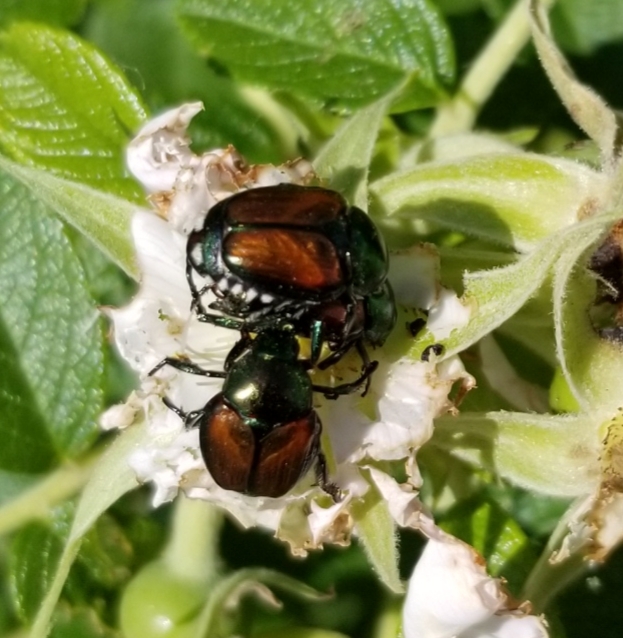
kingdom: Animalia
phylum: Arthropoda
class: Insecta
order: Coleoptera
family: Scarabaeidae
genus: Popillia
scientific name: Popillia japonica
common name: Japanese beetle
